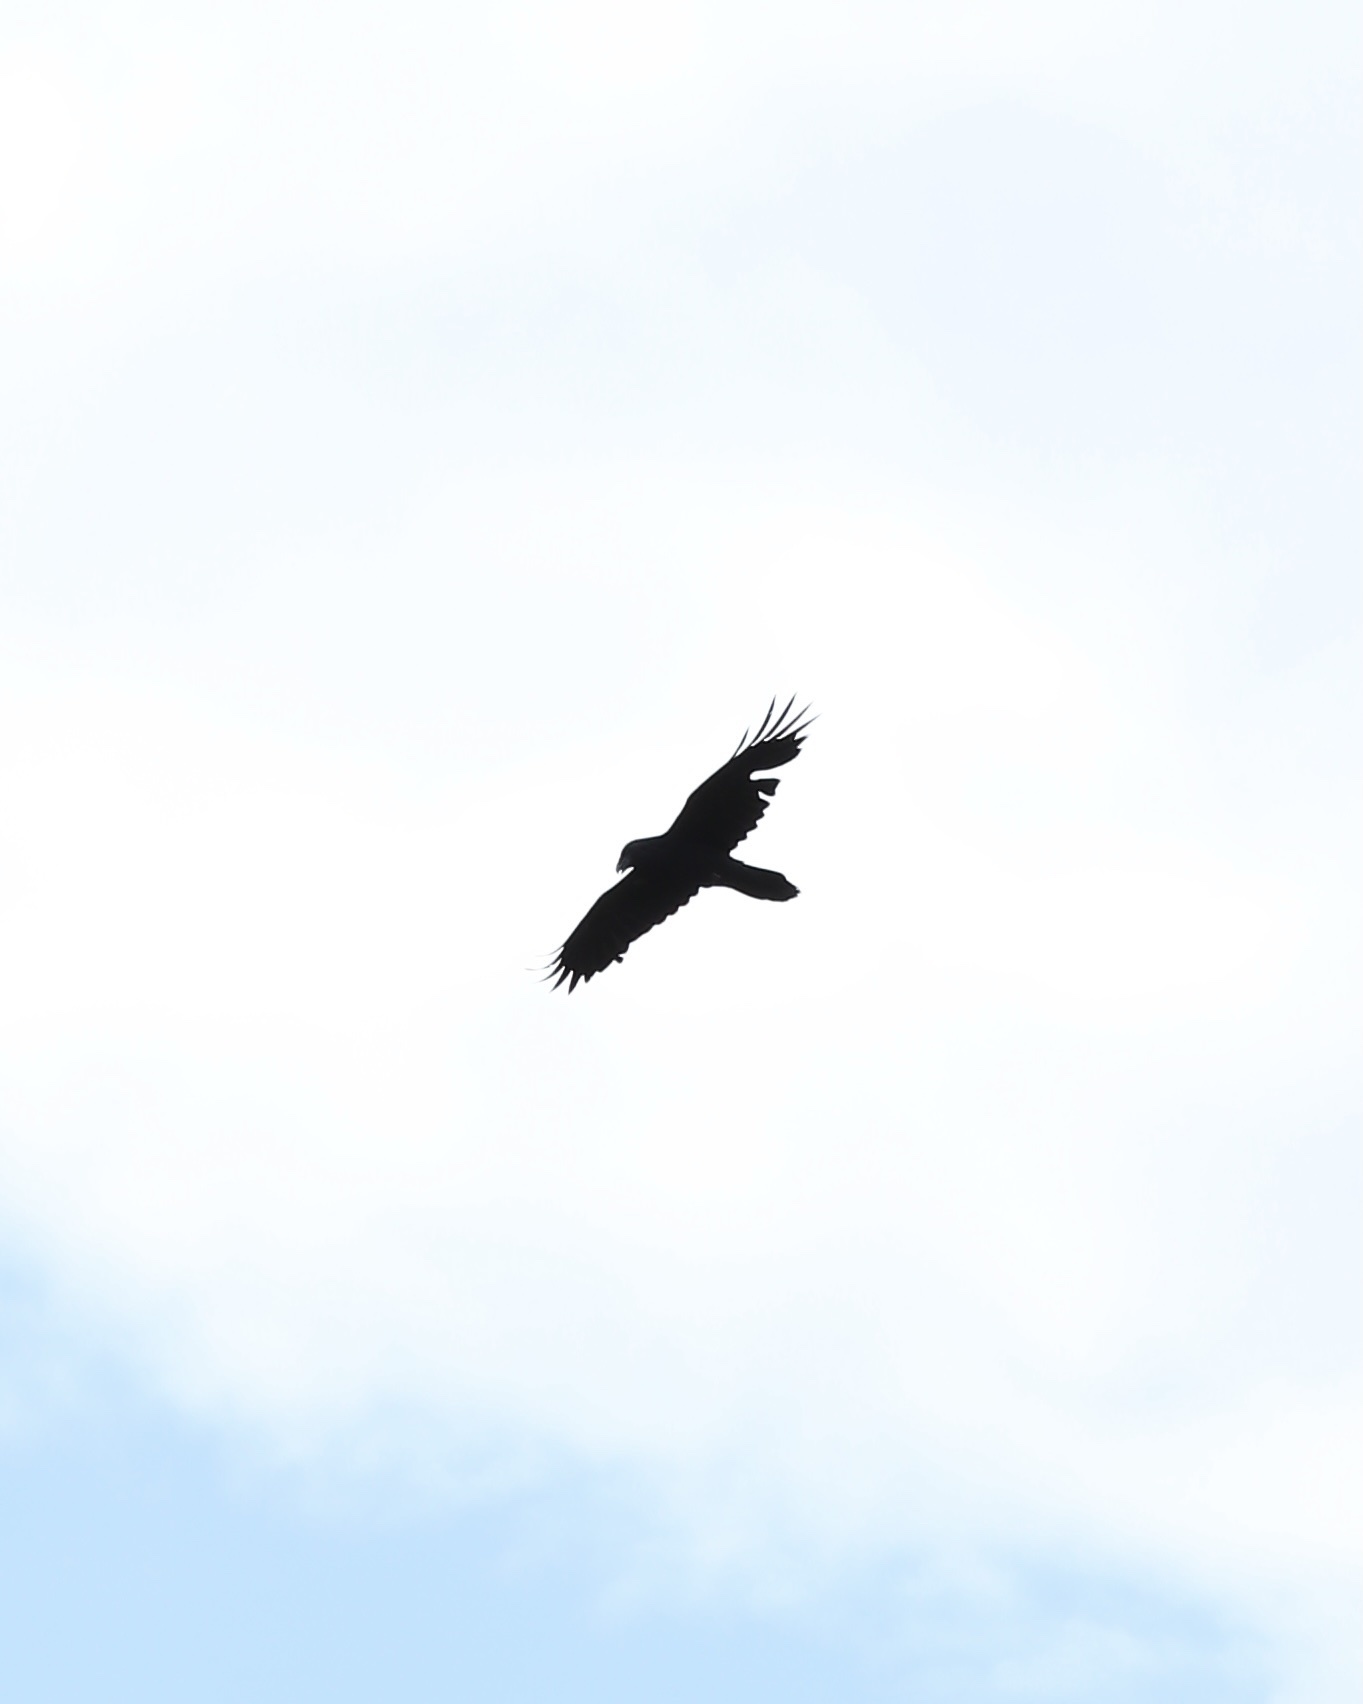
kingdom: Animalia
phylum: Chordata
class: Aves
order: Passeriformes
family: Corvidae
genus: Corvus
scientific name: Corvus corax
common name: Common raven
